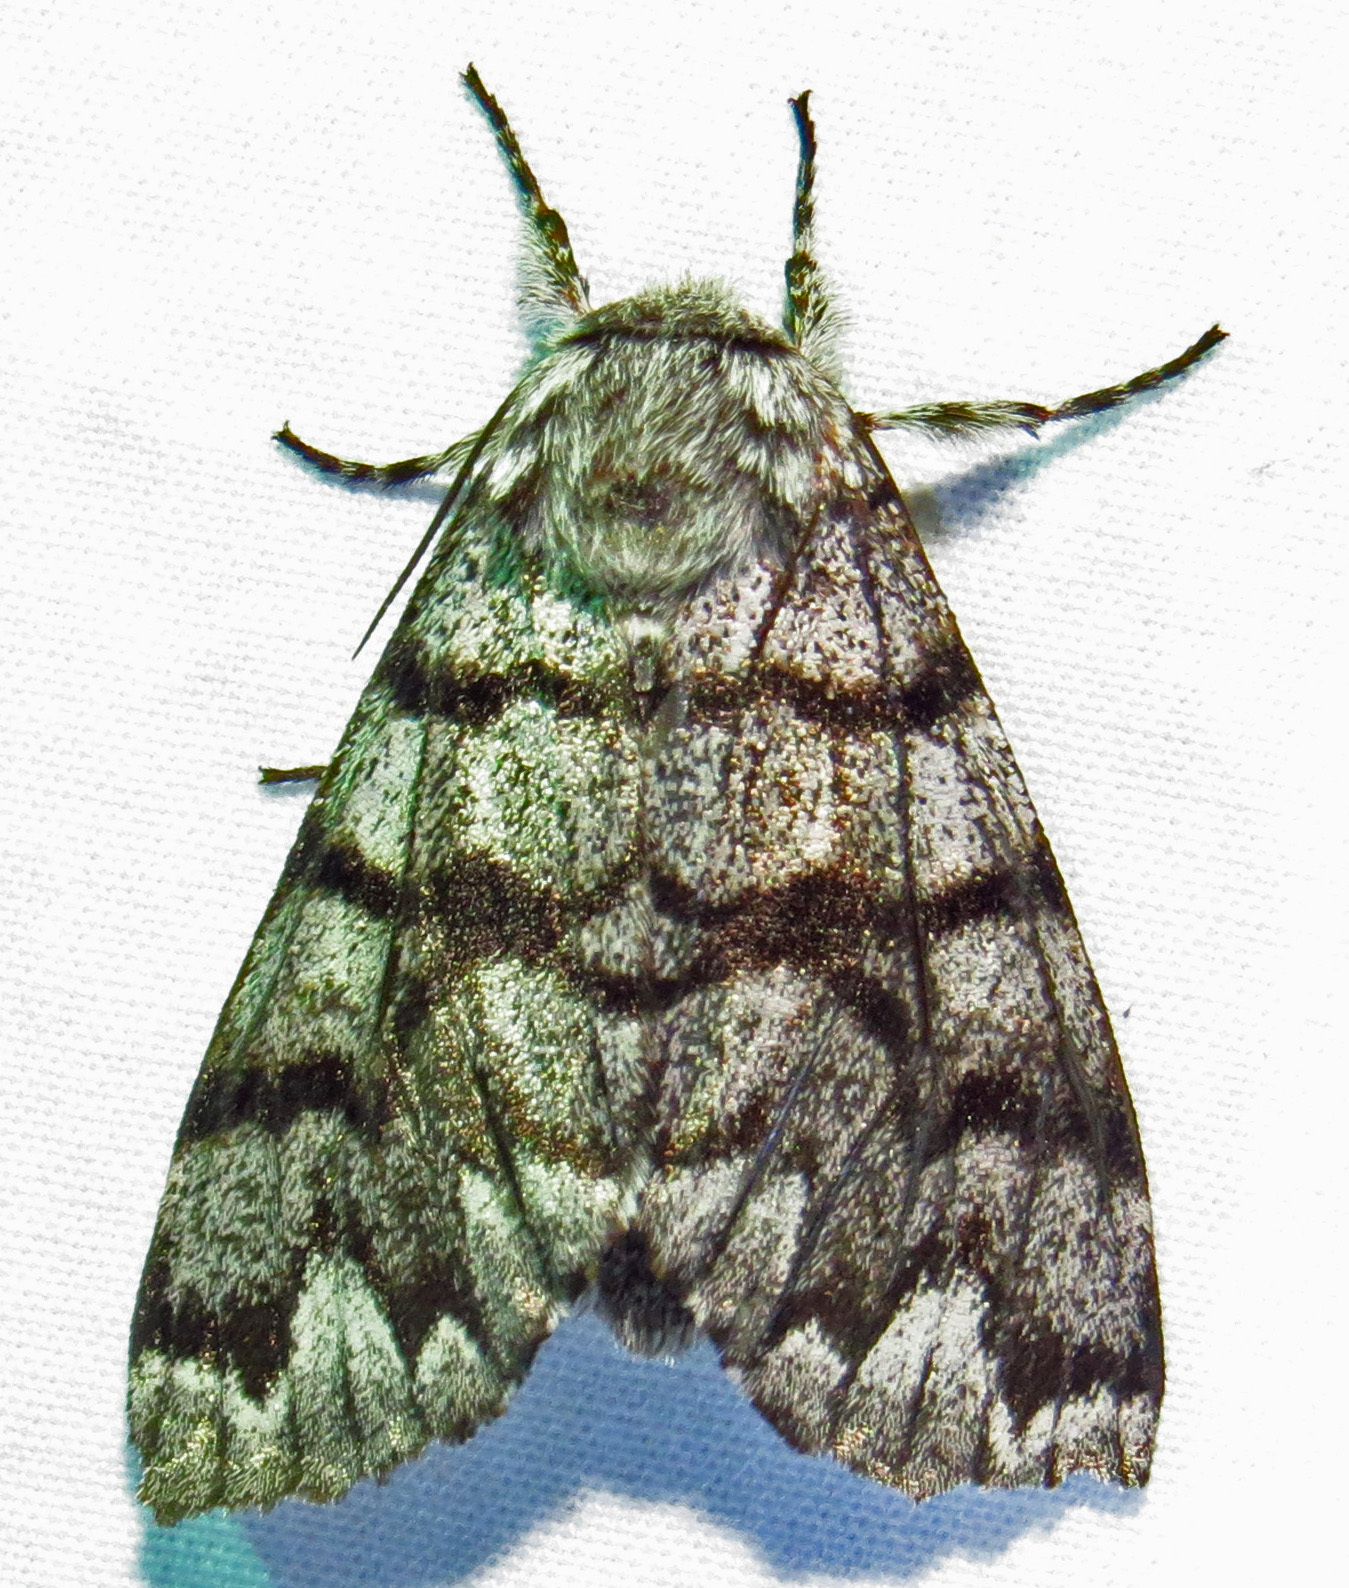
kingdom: Animalia
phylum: Arthropoda
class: Insecta
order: Lepidoptera
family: Noctuidae
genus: Panthea
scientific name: Panthea furcilla
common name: Eastern panthea moth
